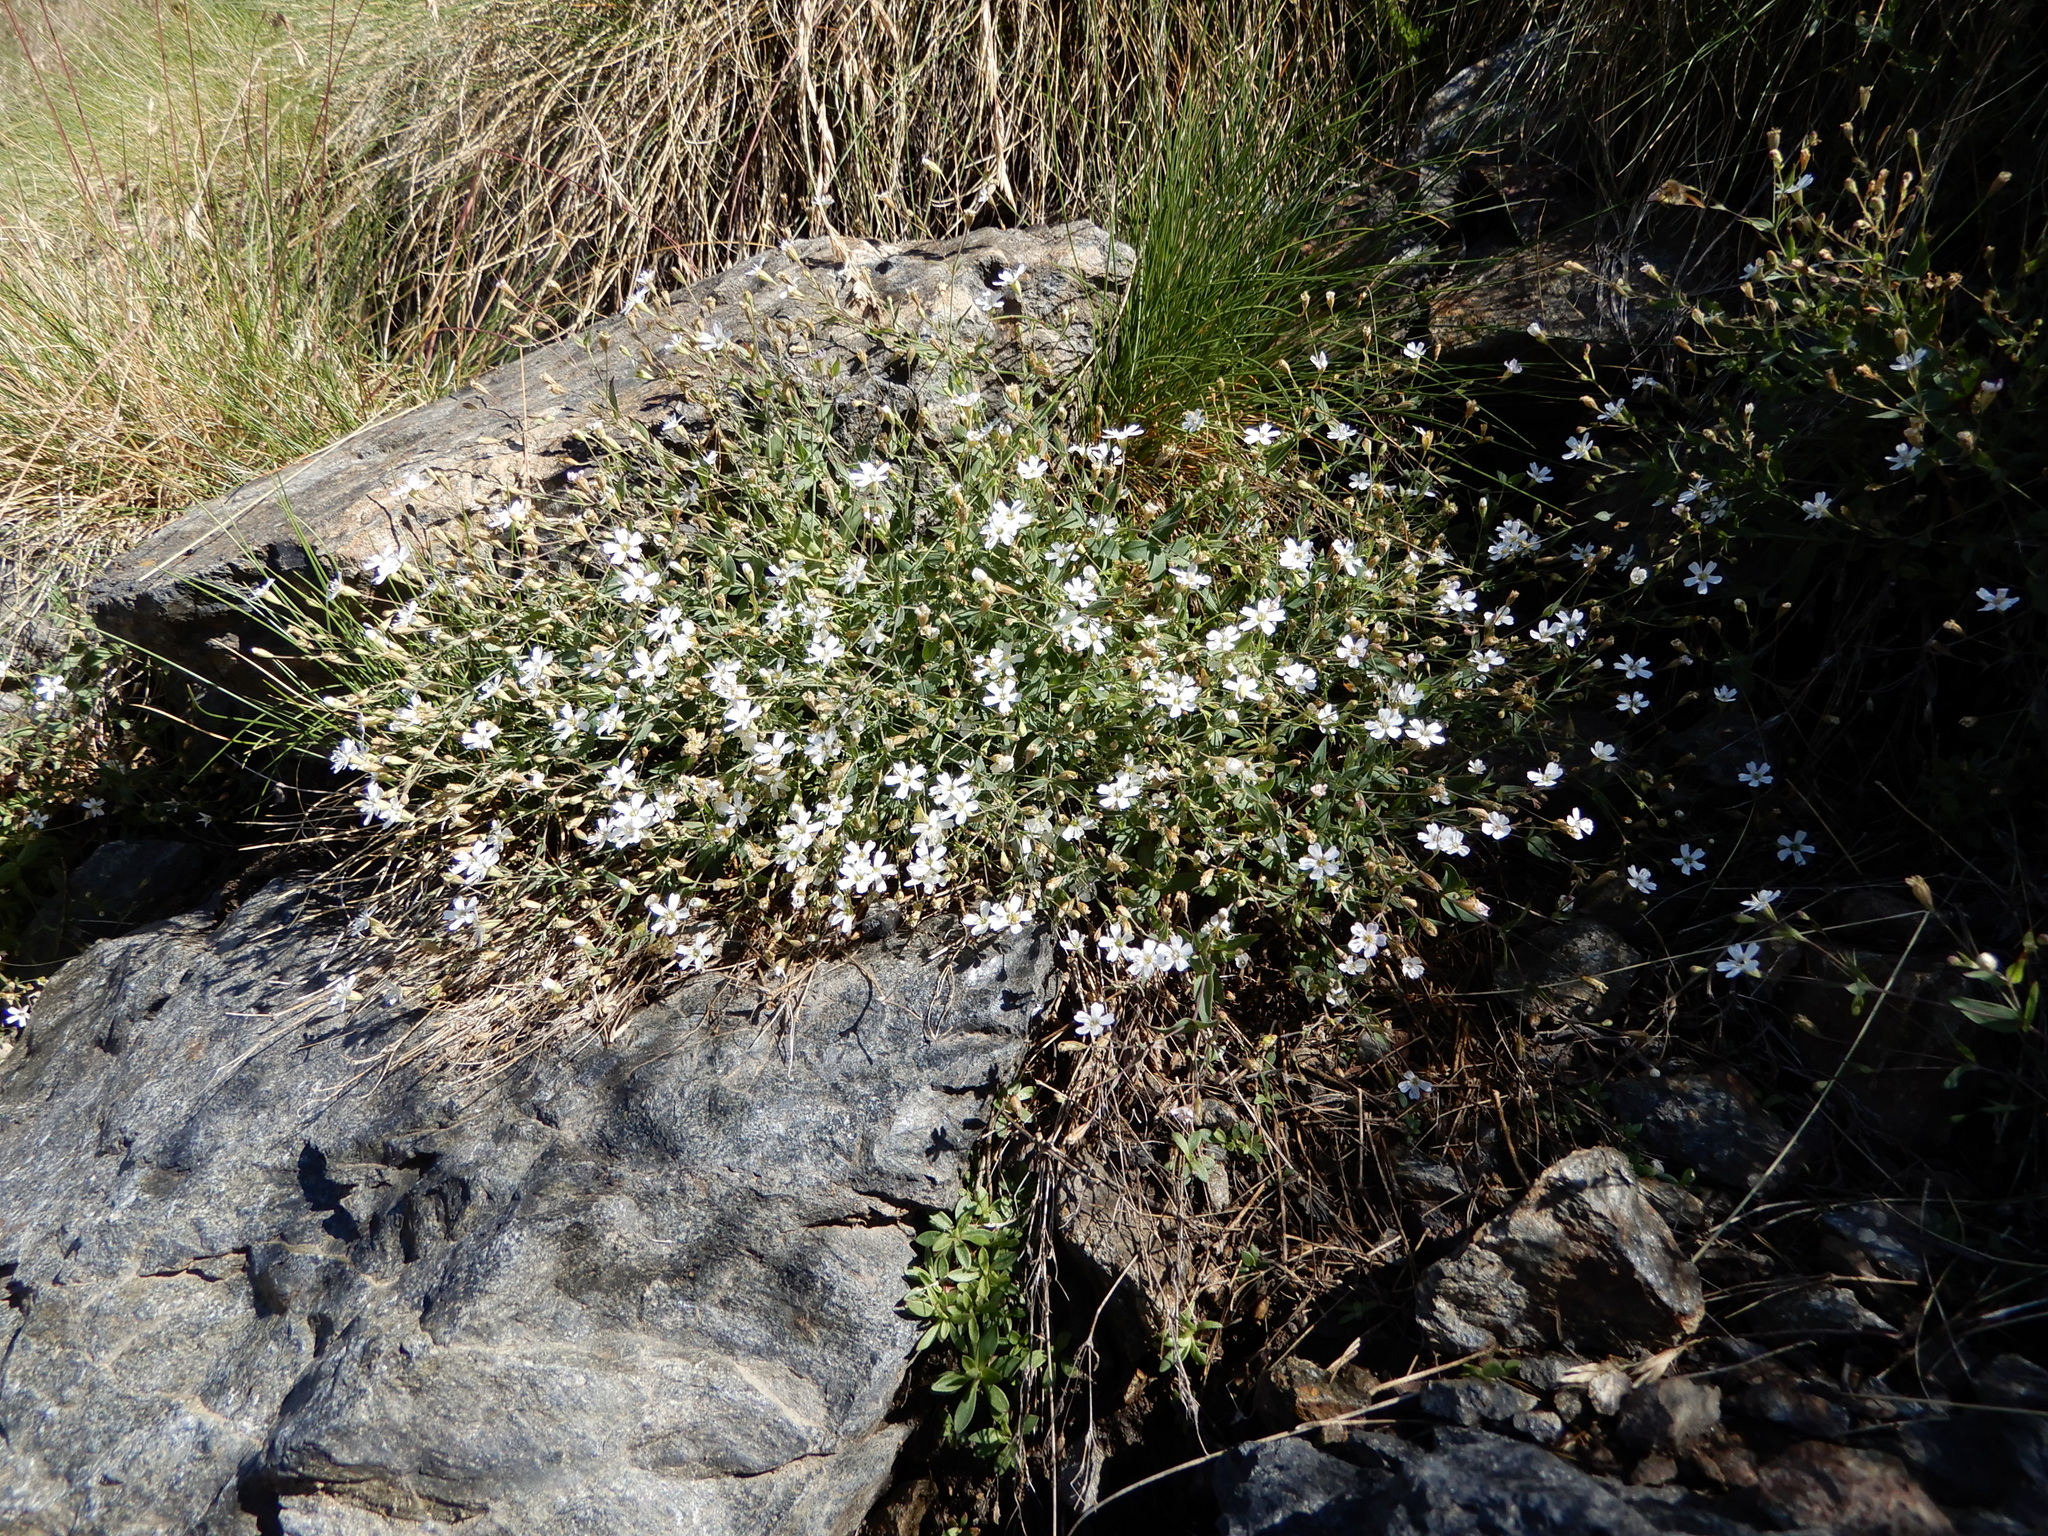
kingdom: Plantae
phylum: Tracheophyta
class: Magnoliopsida
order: Caryophyllales
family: Caryophyllaceae
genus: Atocion
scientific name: Atocion rupestre
